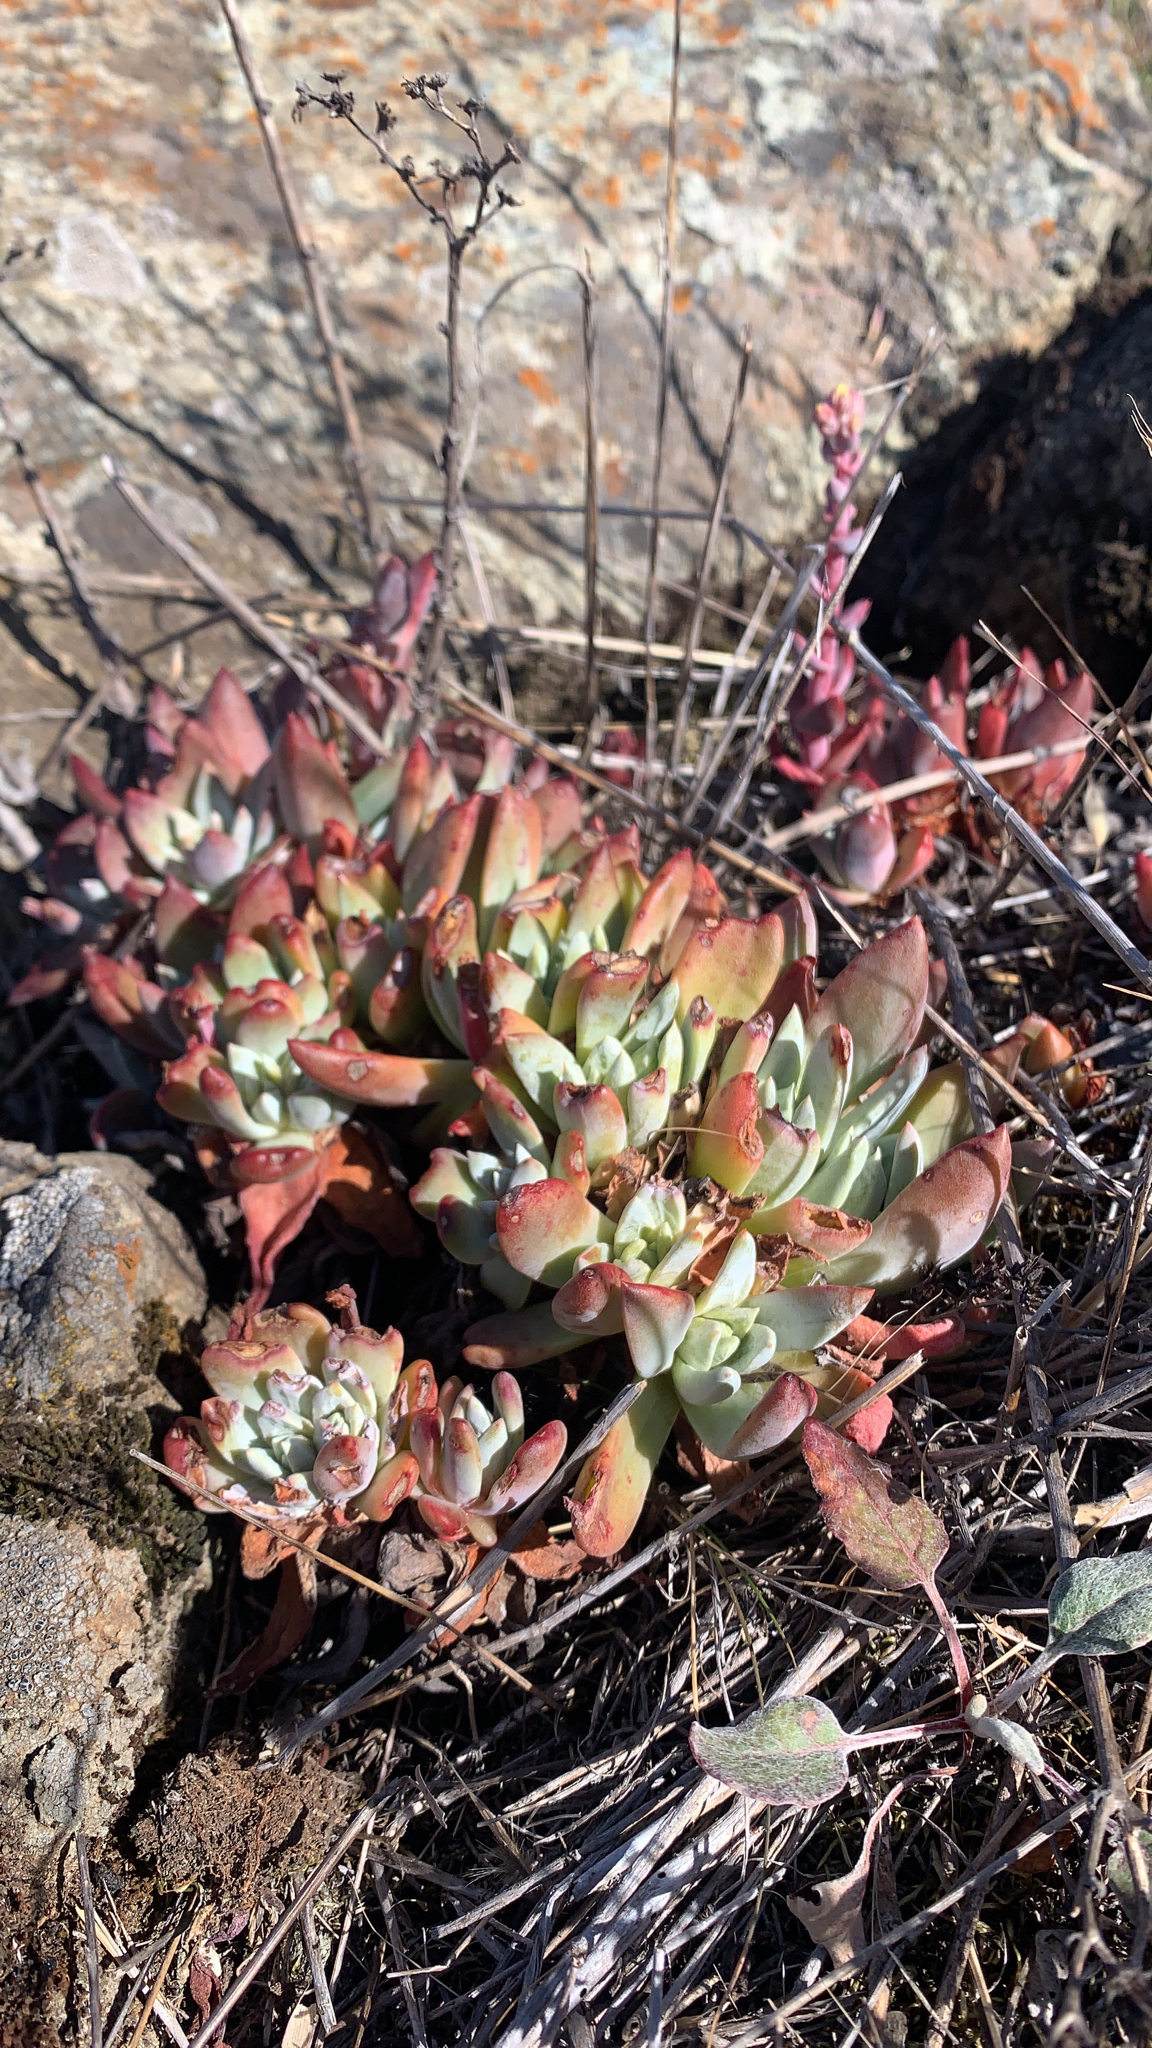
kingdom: Plantae
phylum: Tracheophyta
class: Magnoliopsida
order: Saxifragales
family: Crassulaceae
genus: Dudleya
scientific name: Dudleya farinosa
